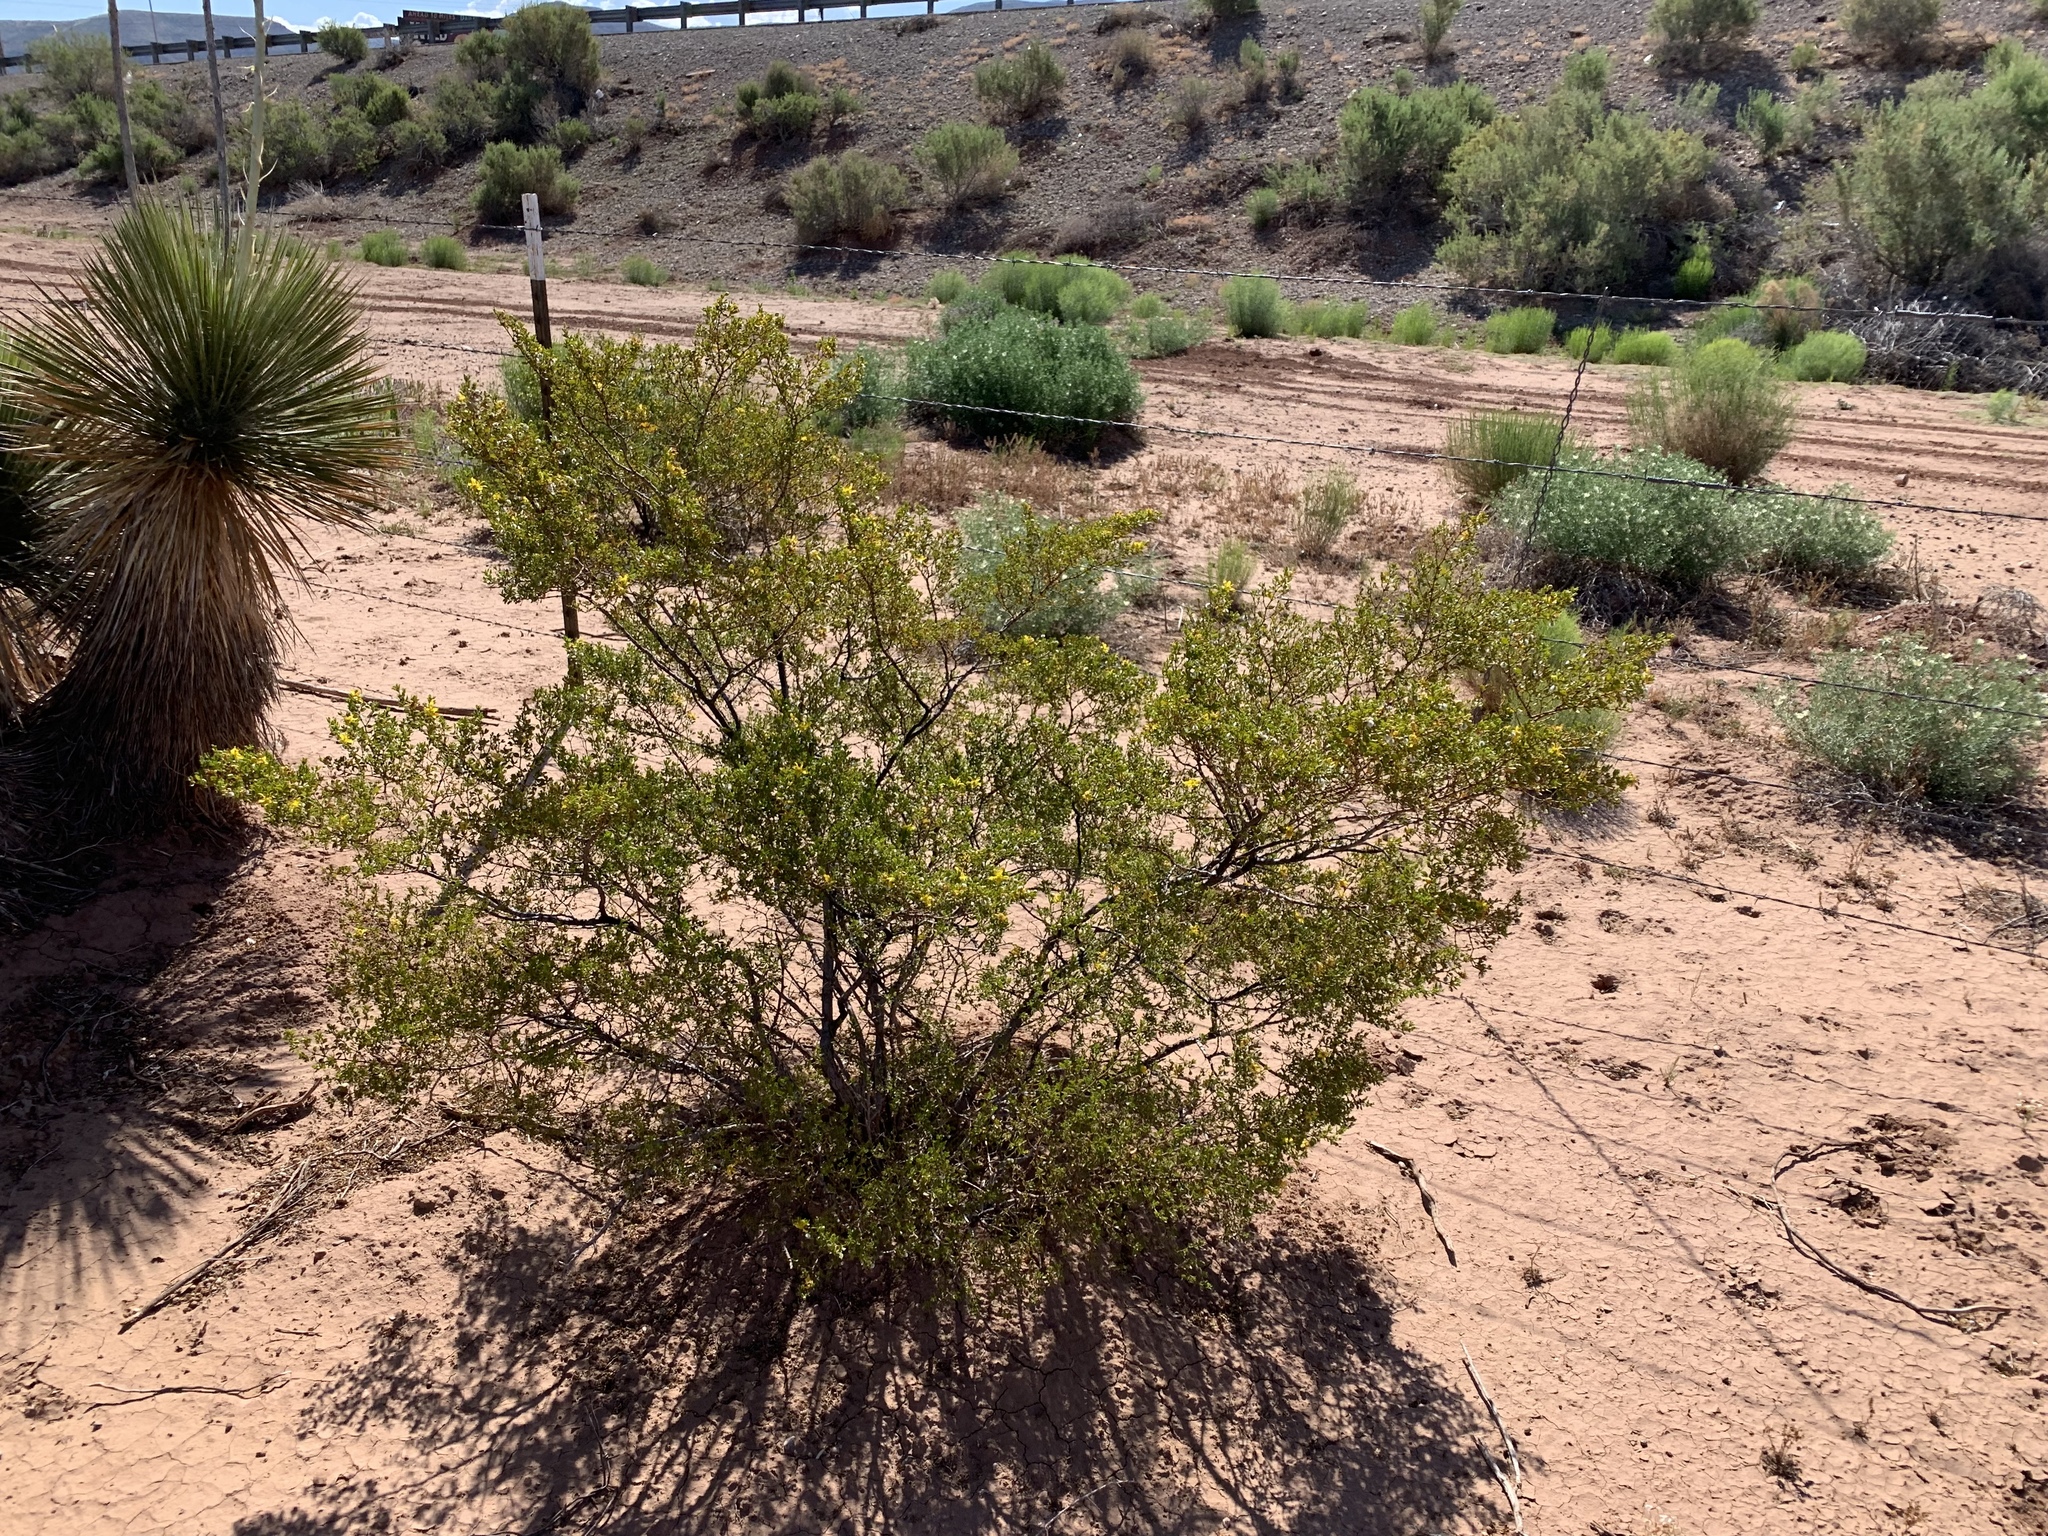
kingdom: Plantae
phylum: Tracheophyta
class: Magnoliopsida
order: Zygophyllales
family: Zygophyllaceae
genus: Larrea
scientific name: Larrea tridentata
